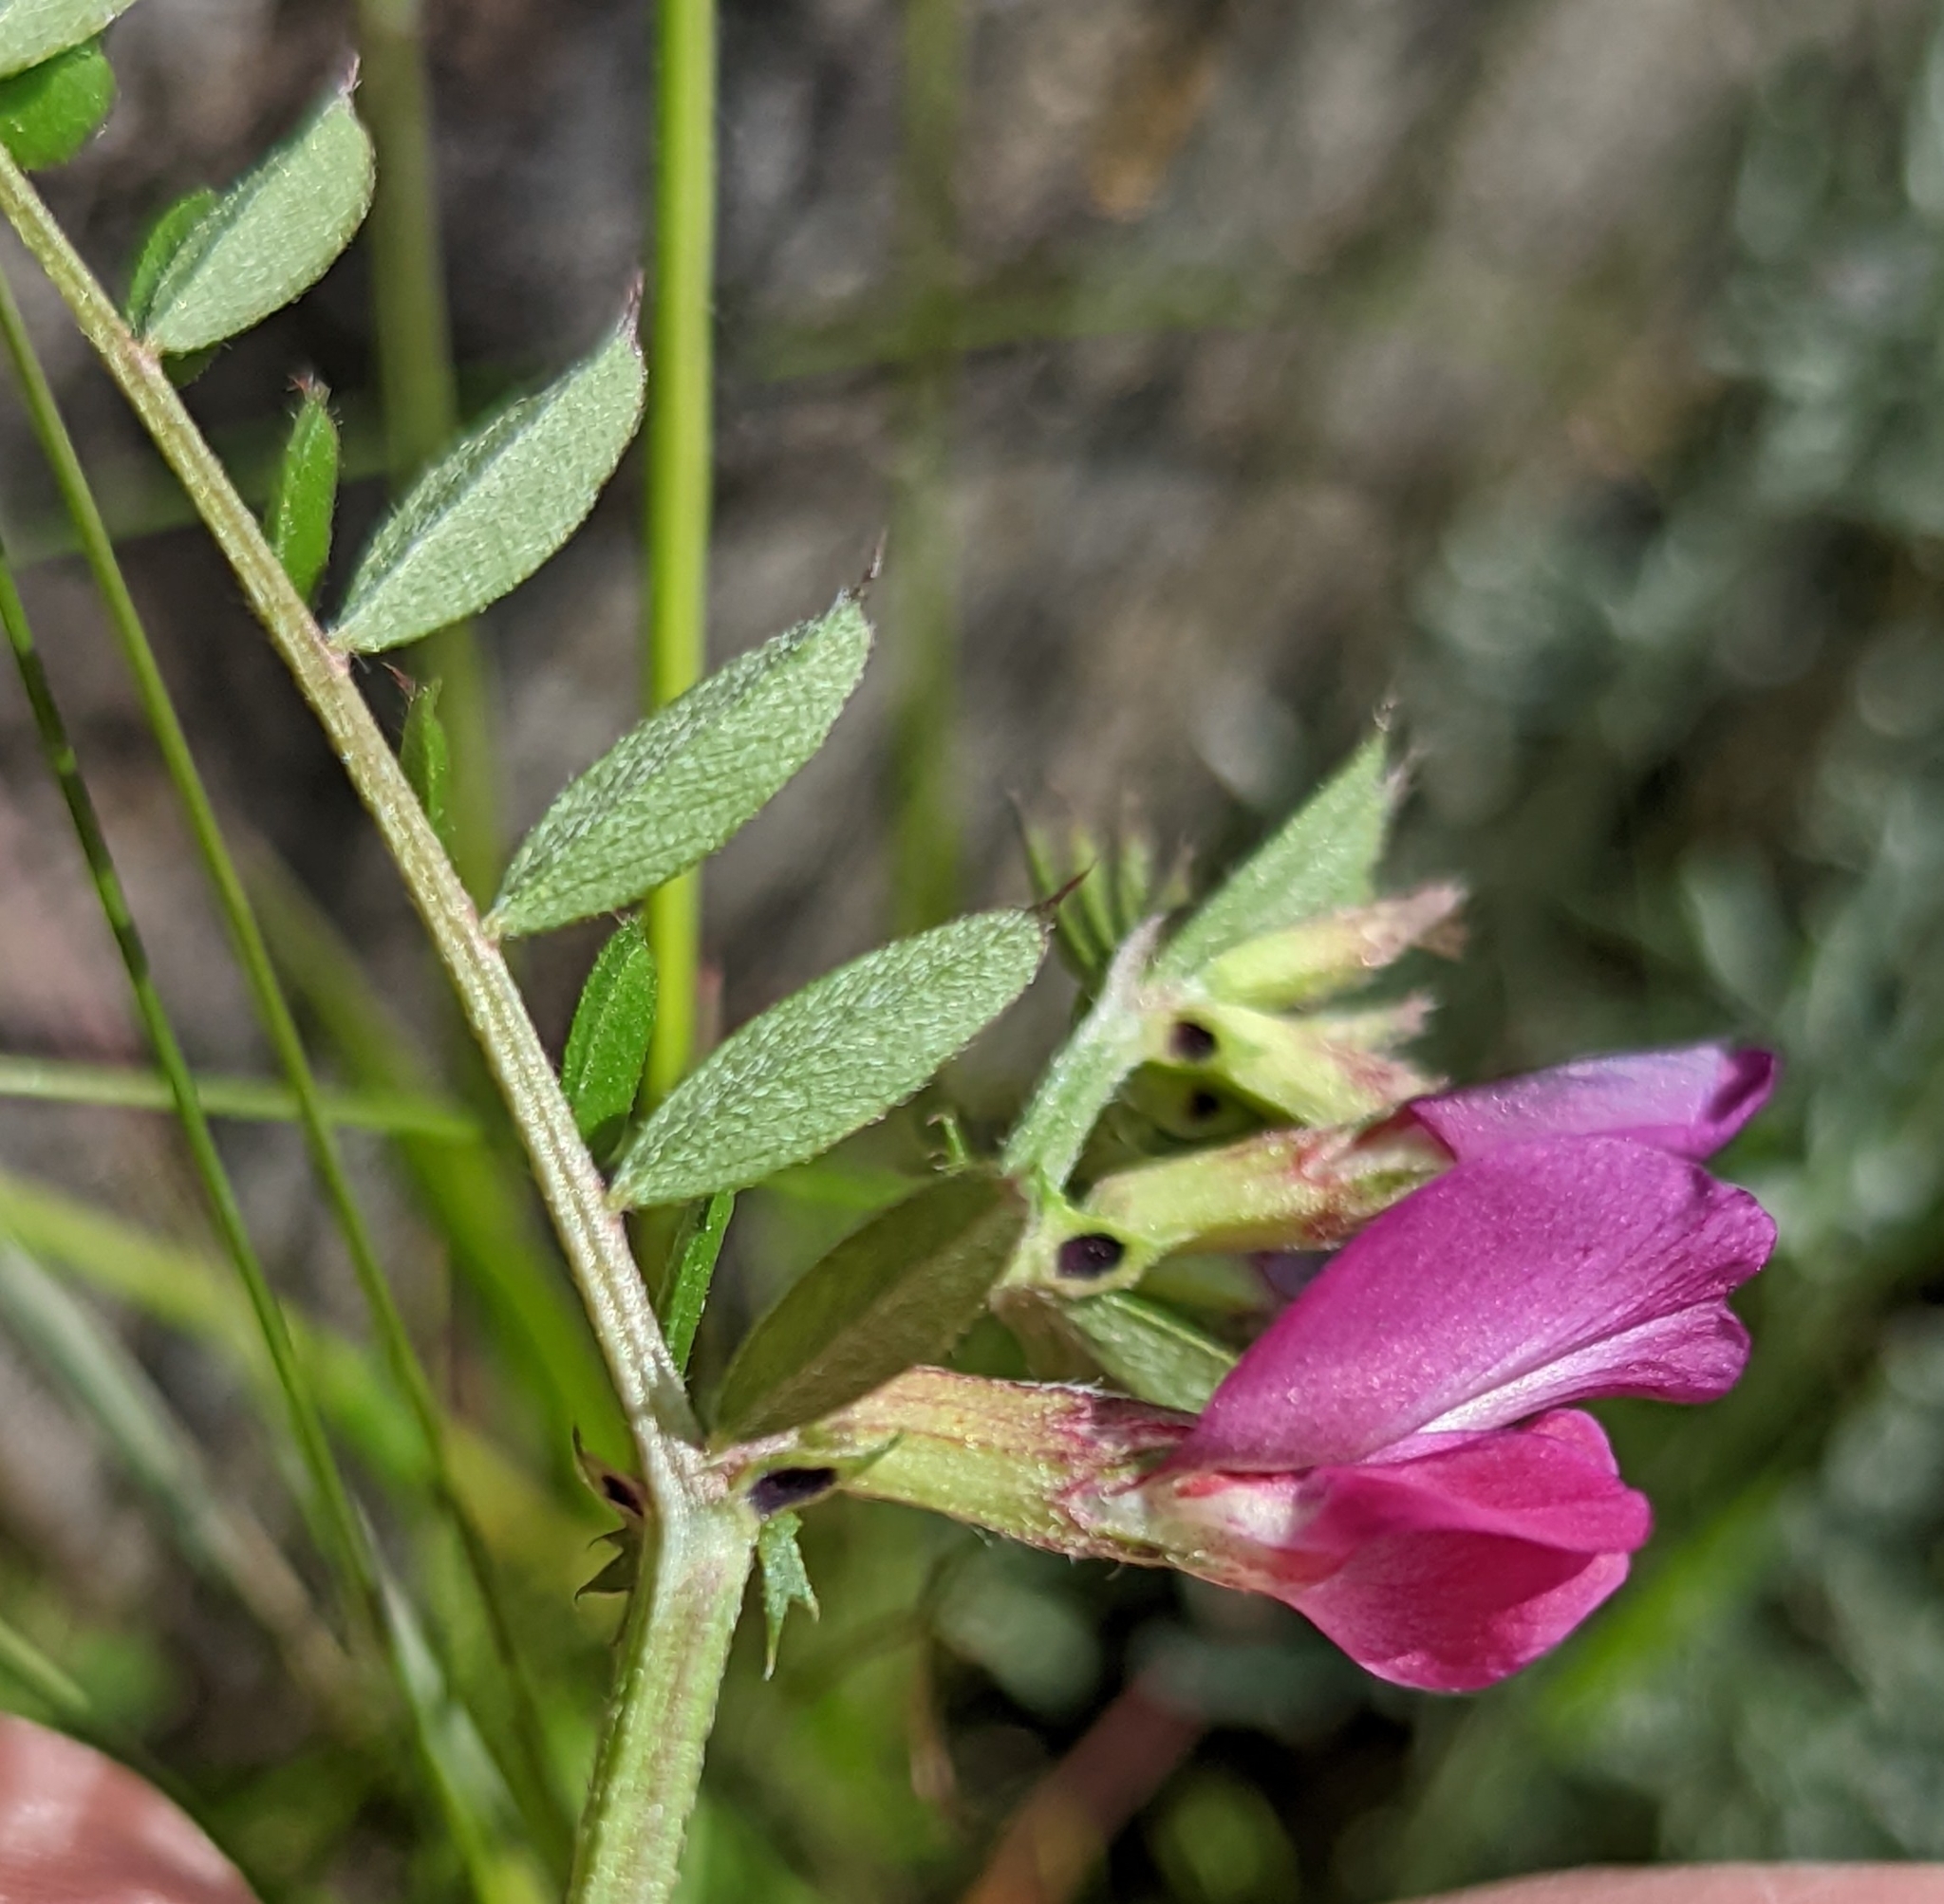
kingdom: Plantae
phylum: Tracheophyta
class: Magnoliopsida
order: Fabales
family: Fabaceae
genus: Vicia
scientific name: Vicia sativa
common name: Garden vetch
